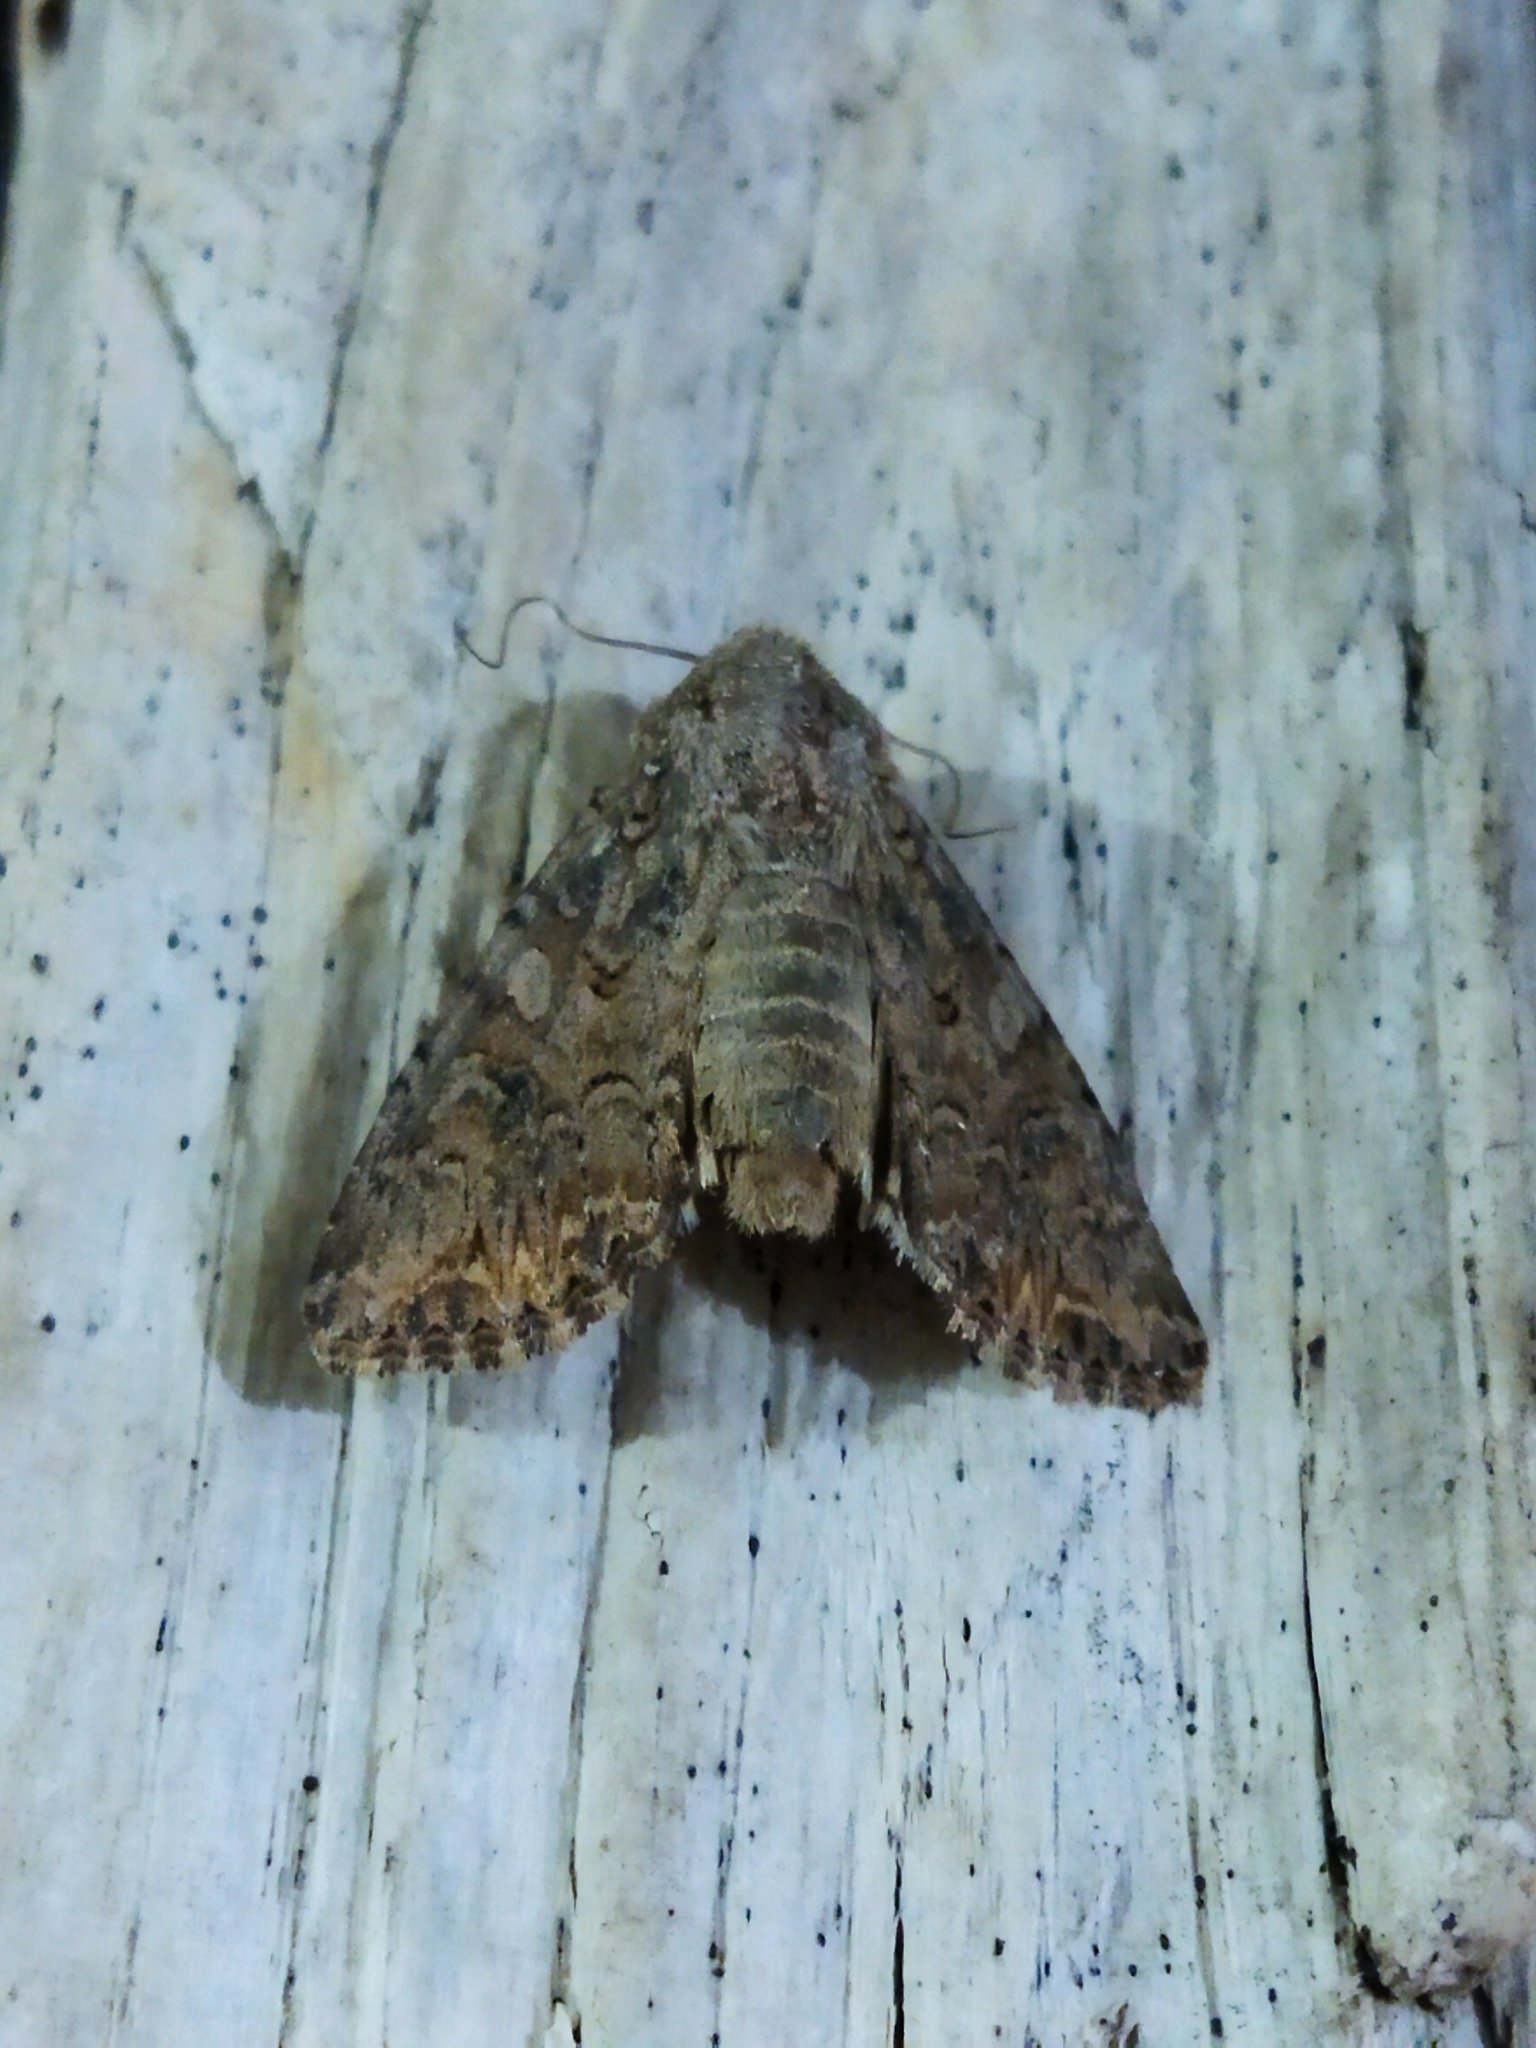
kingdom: Animalia
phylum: Arthropoda
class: Insecta
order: Lepidoptera
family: Noctuidae
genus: Anarta
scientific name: Anarta trifolii
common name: Clover cutworm moth
